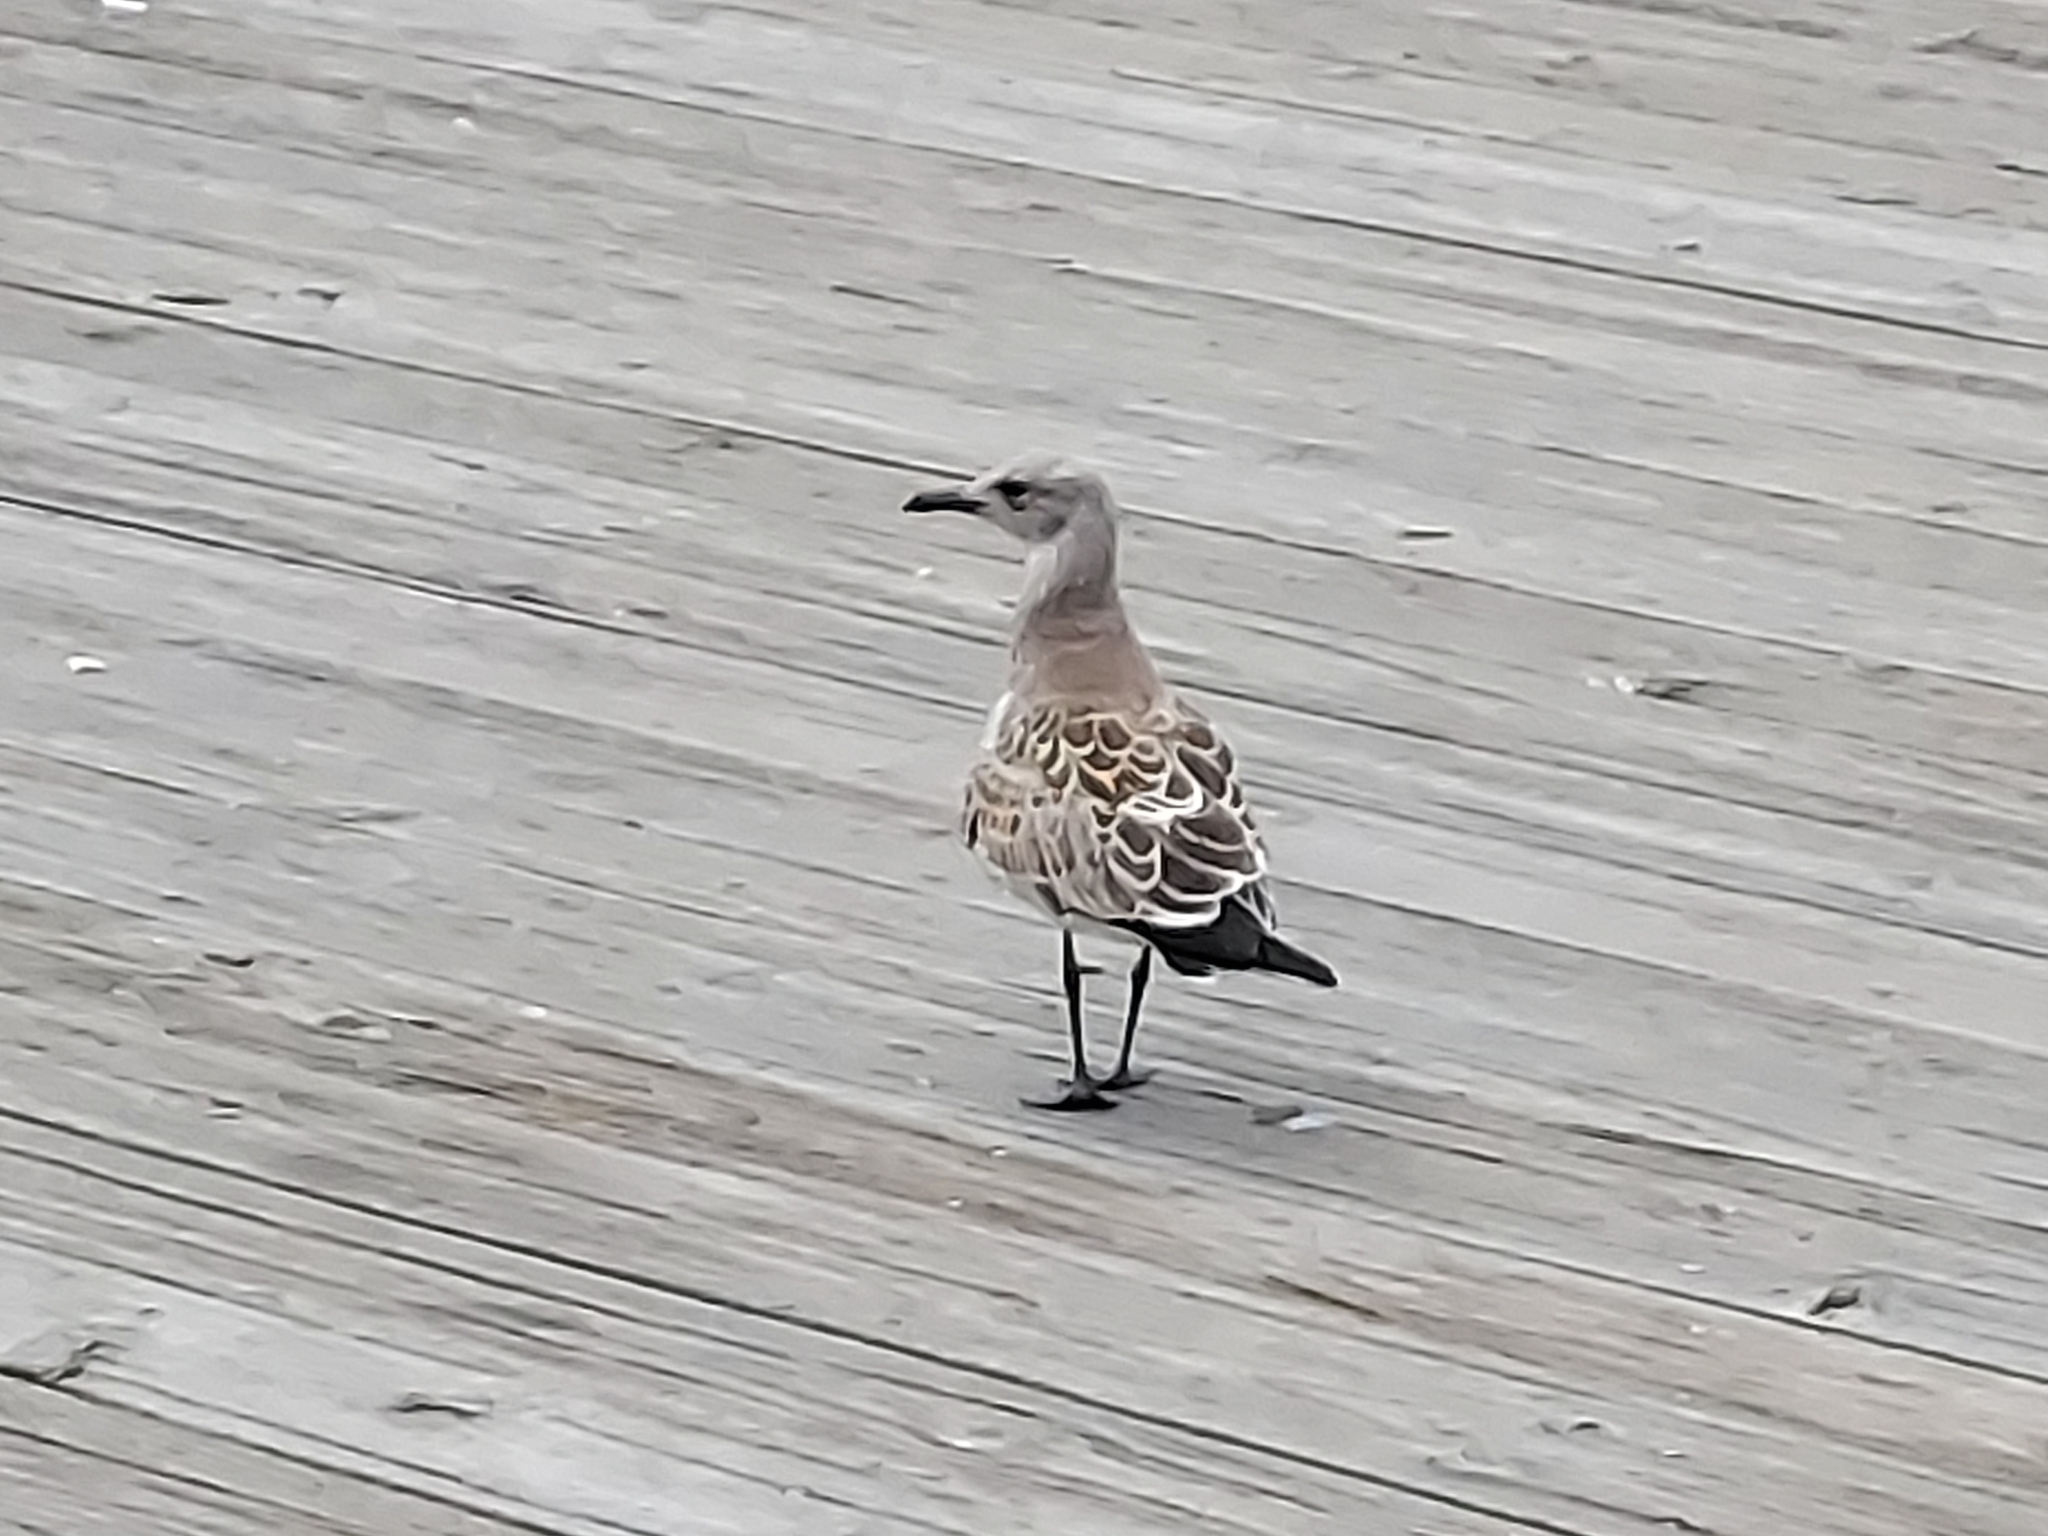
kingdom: Animalia
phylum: Chordata
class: Aves
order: Charadriiformes
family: Laridae
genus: Leucophaeus
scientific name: Leucophaeus atricilla
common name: Laughing gull
